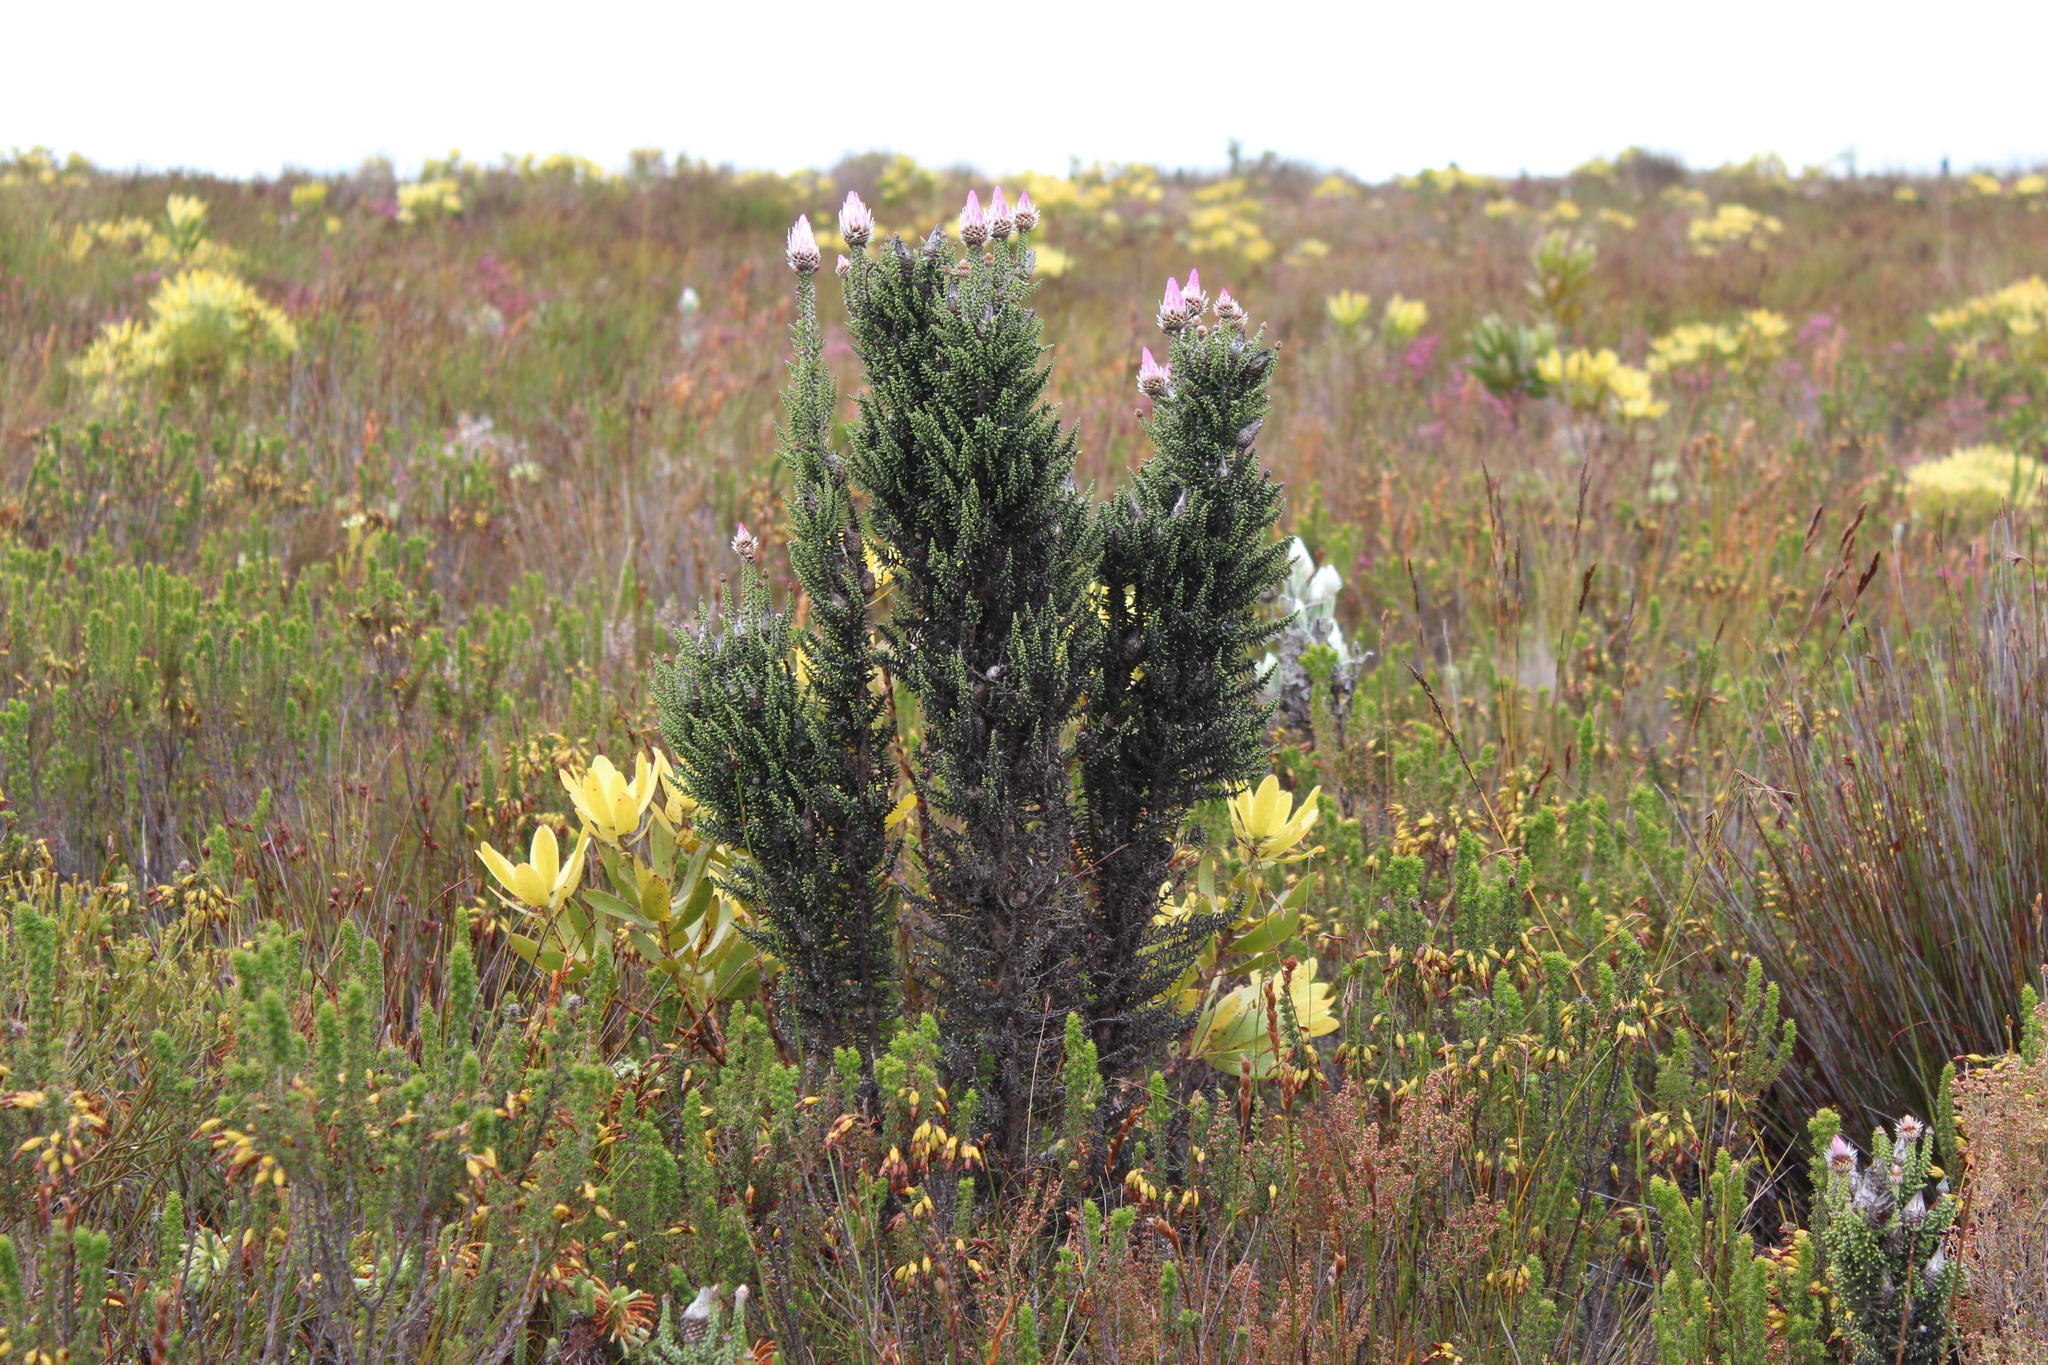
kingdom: Plantae
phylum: Tracheophyta
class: Magnoliopsida
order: Asterales
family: Asteraceae
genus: Phaenocoma
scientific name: Phaenocoma prolifera
